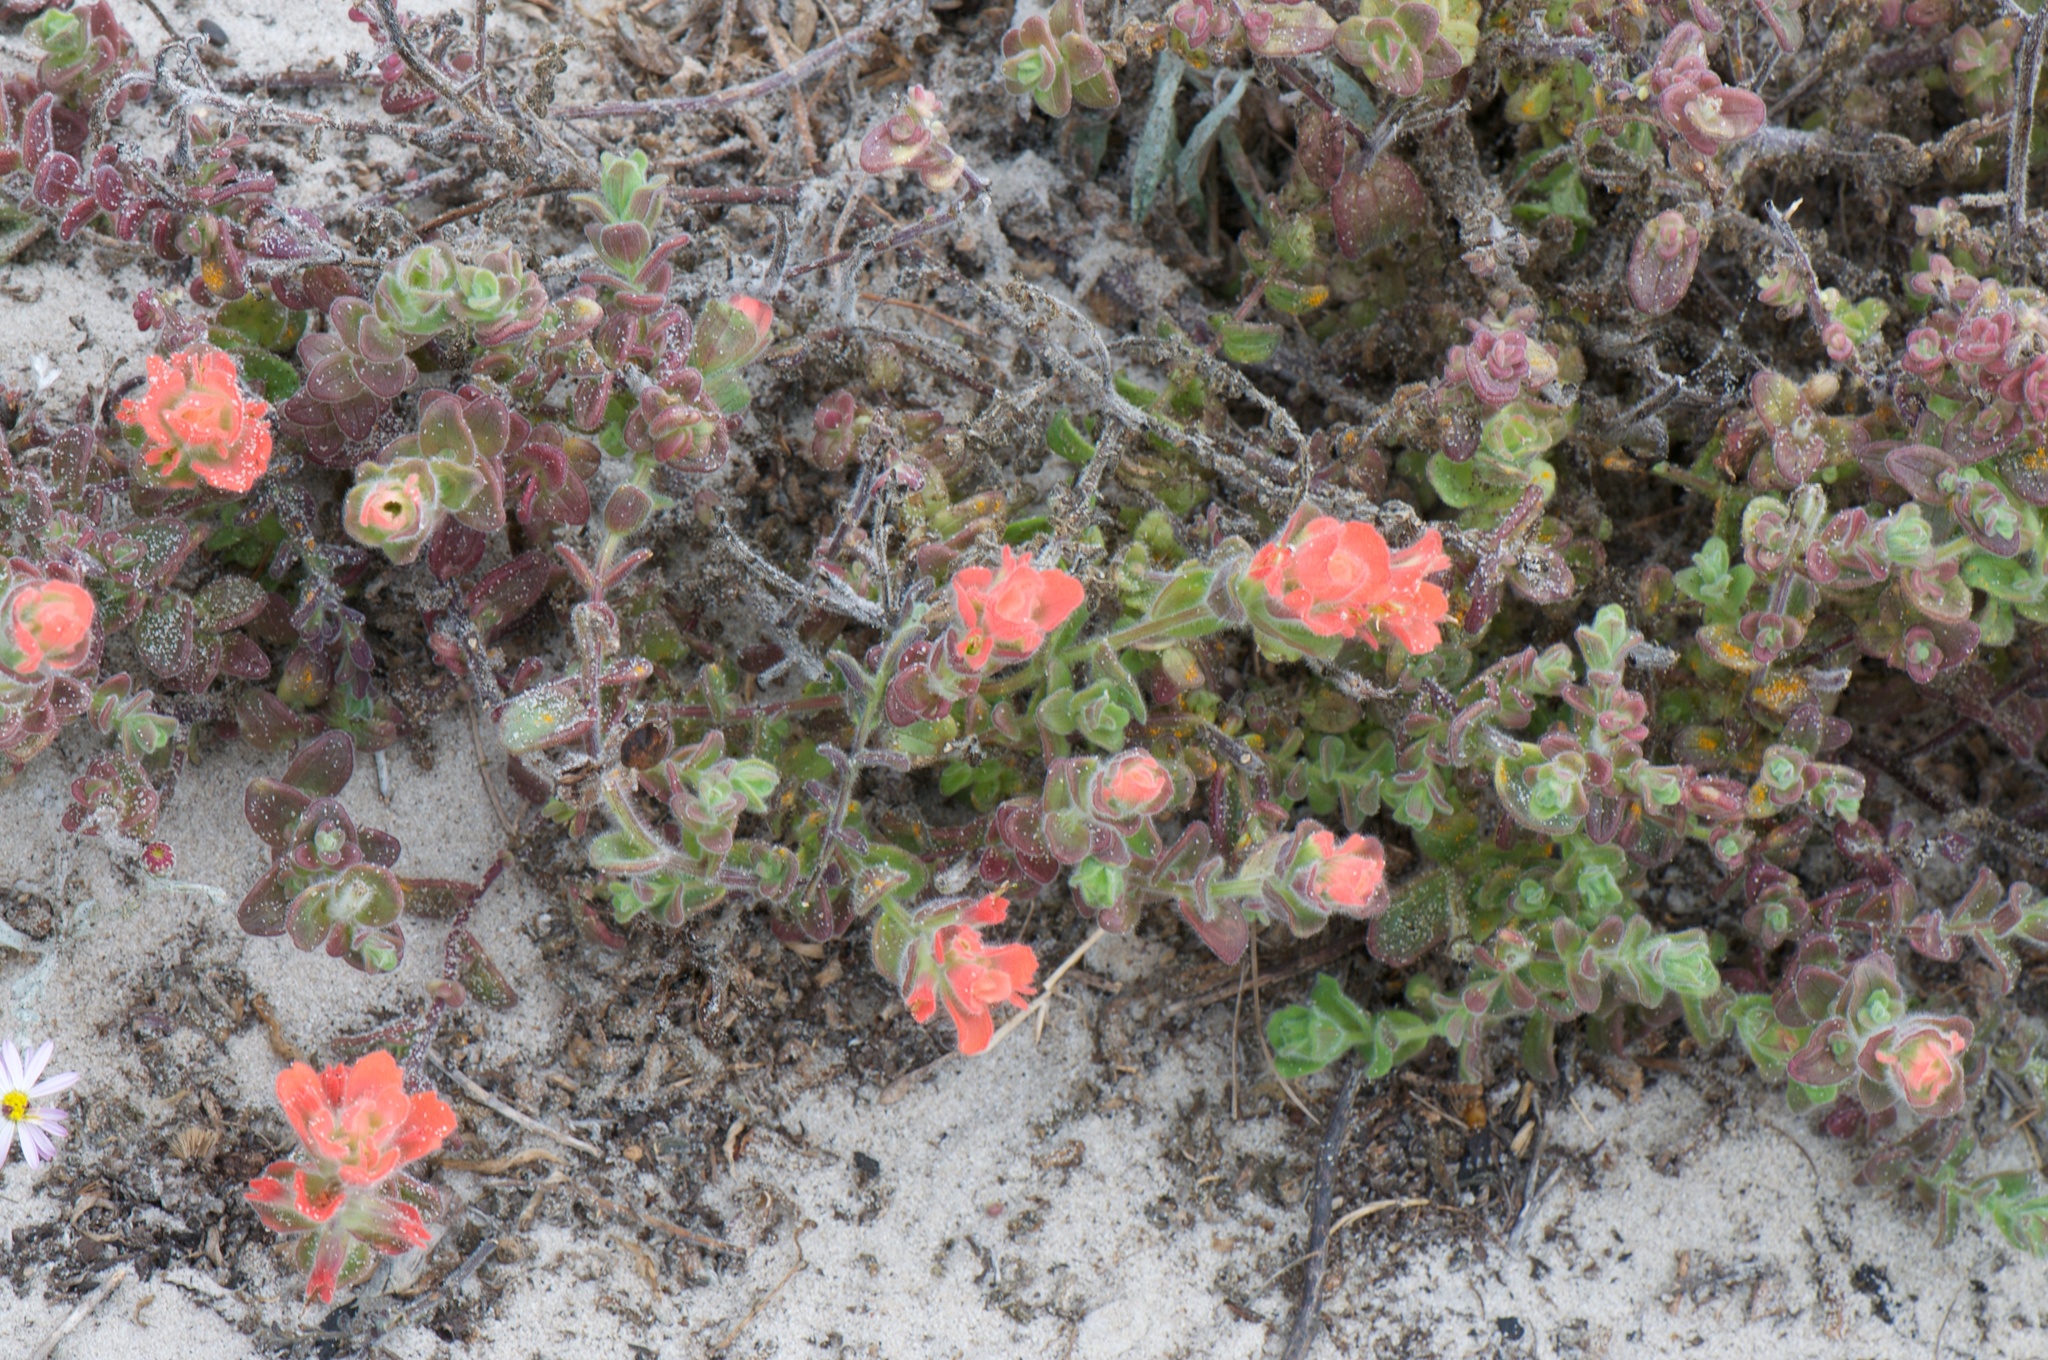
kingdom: Plantae
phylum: Tracheophyta
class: Magnoliopsida
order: Lamiales
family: Orobanchaceae
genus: Castilleja
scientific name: Castilleja latifolia
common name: Monterey indian paintbrush
